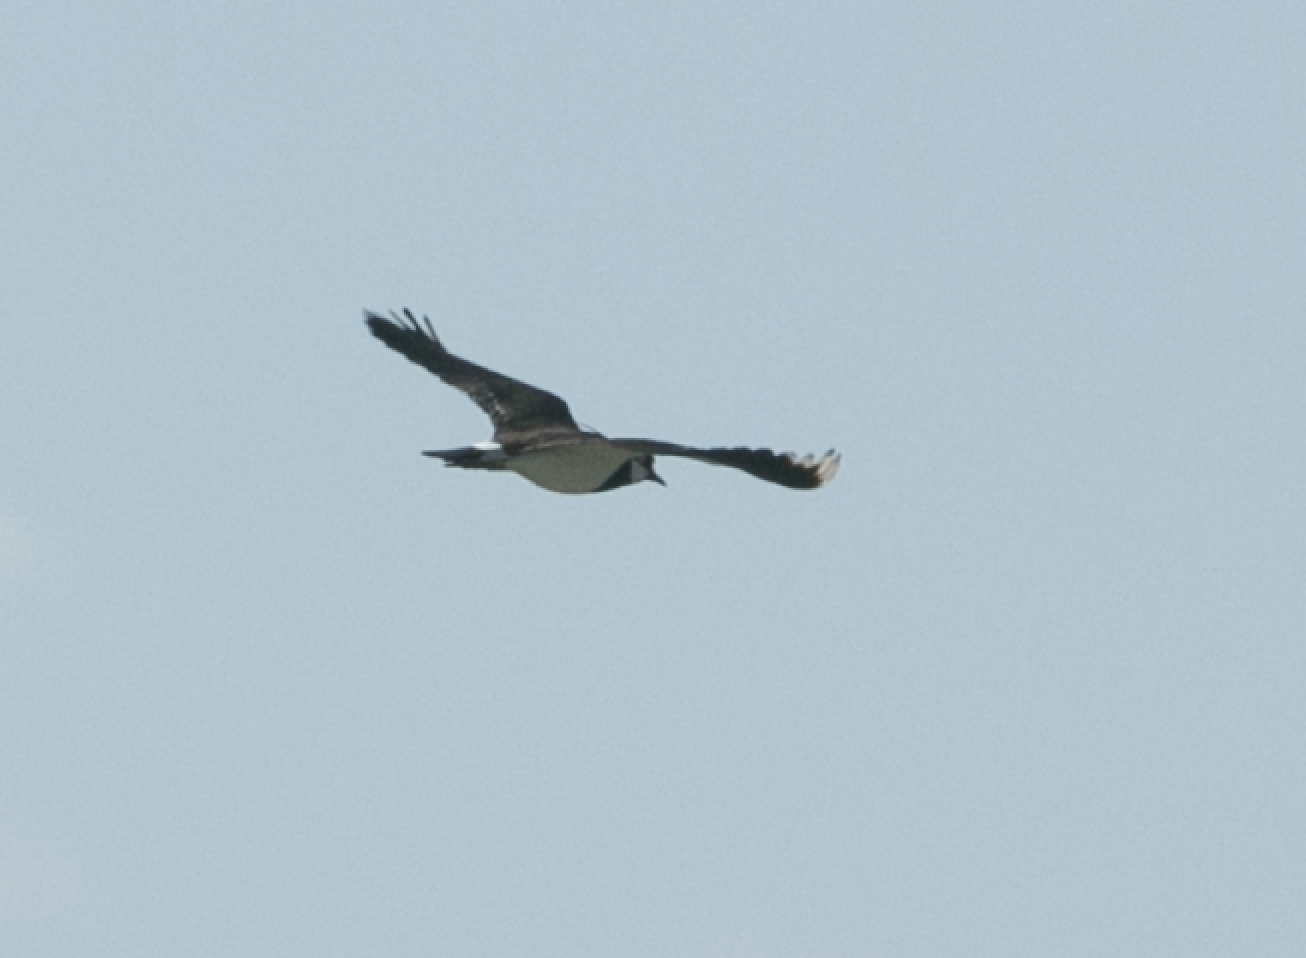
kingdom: Animalia
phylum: Chordata
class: Aves
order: Charadriiformes
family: Charadriidae
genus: Vanellus
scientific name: Vanellus vanellus
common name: Northern lapwing
